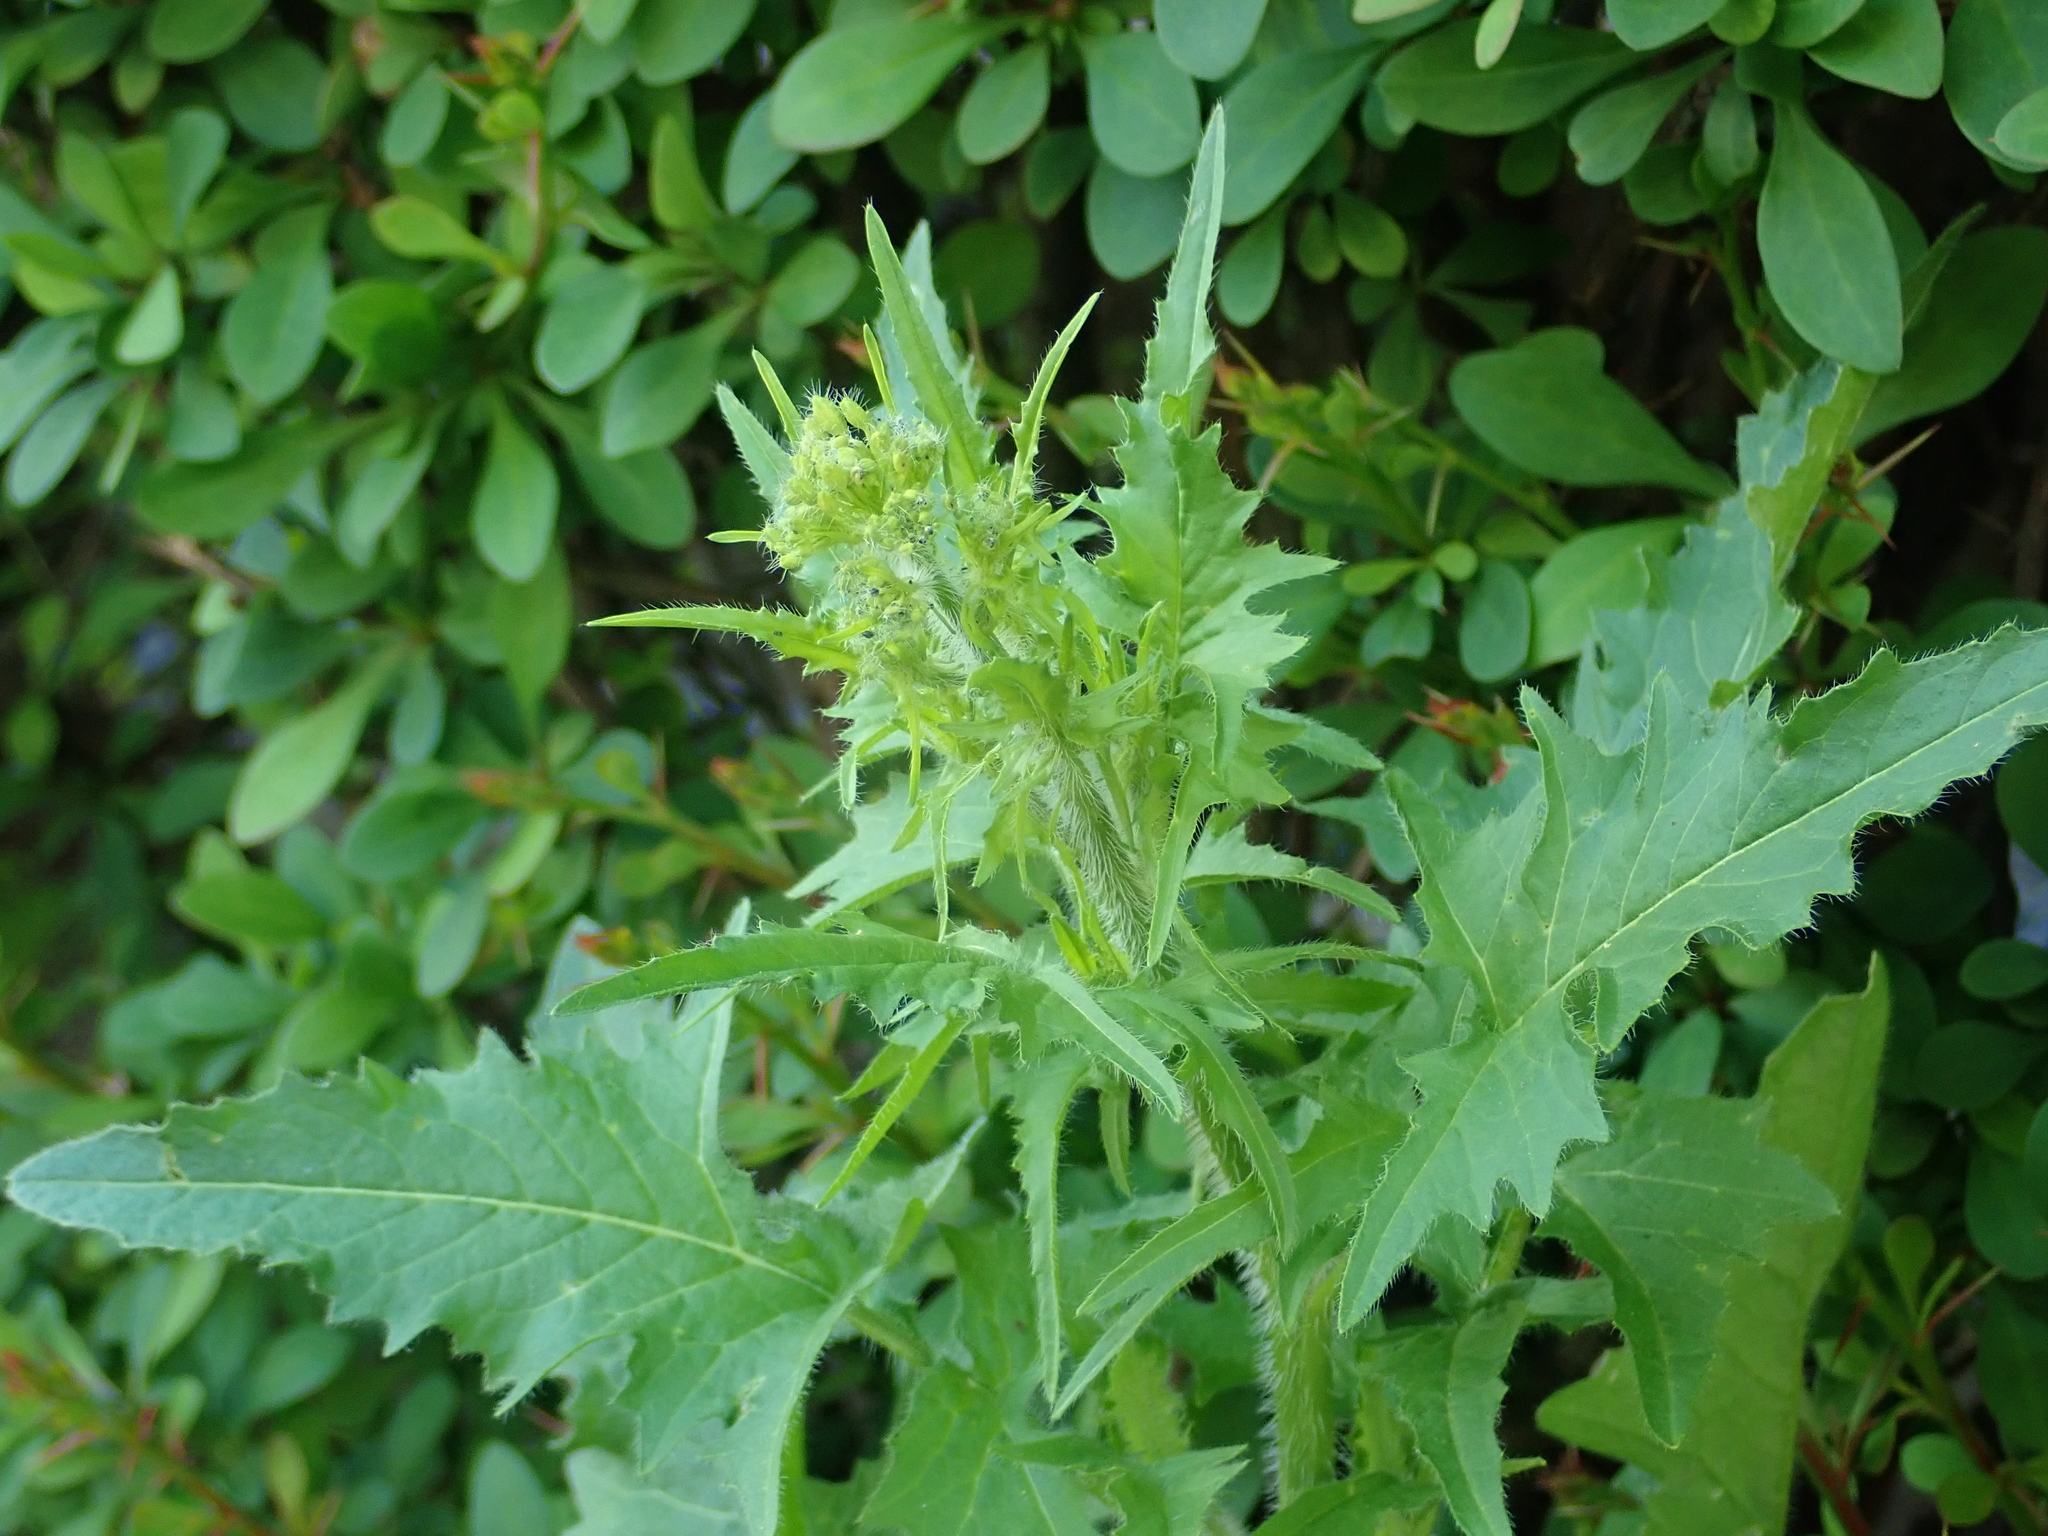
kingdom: Plantae
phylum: Tracheophyta
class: Magnoliopsida
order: Brassicales
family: Brassicaceae
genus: Sisymbrium
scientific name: Sisymbrium loeselii
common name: False london-rocket
